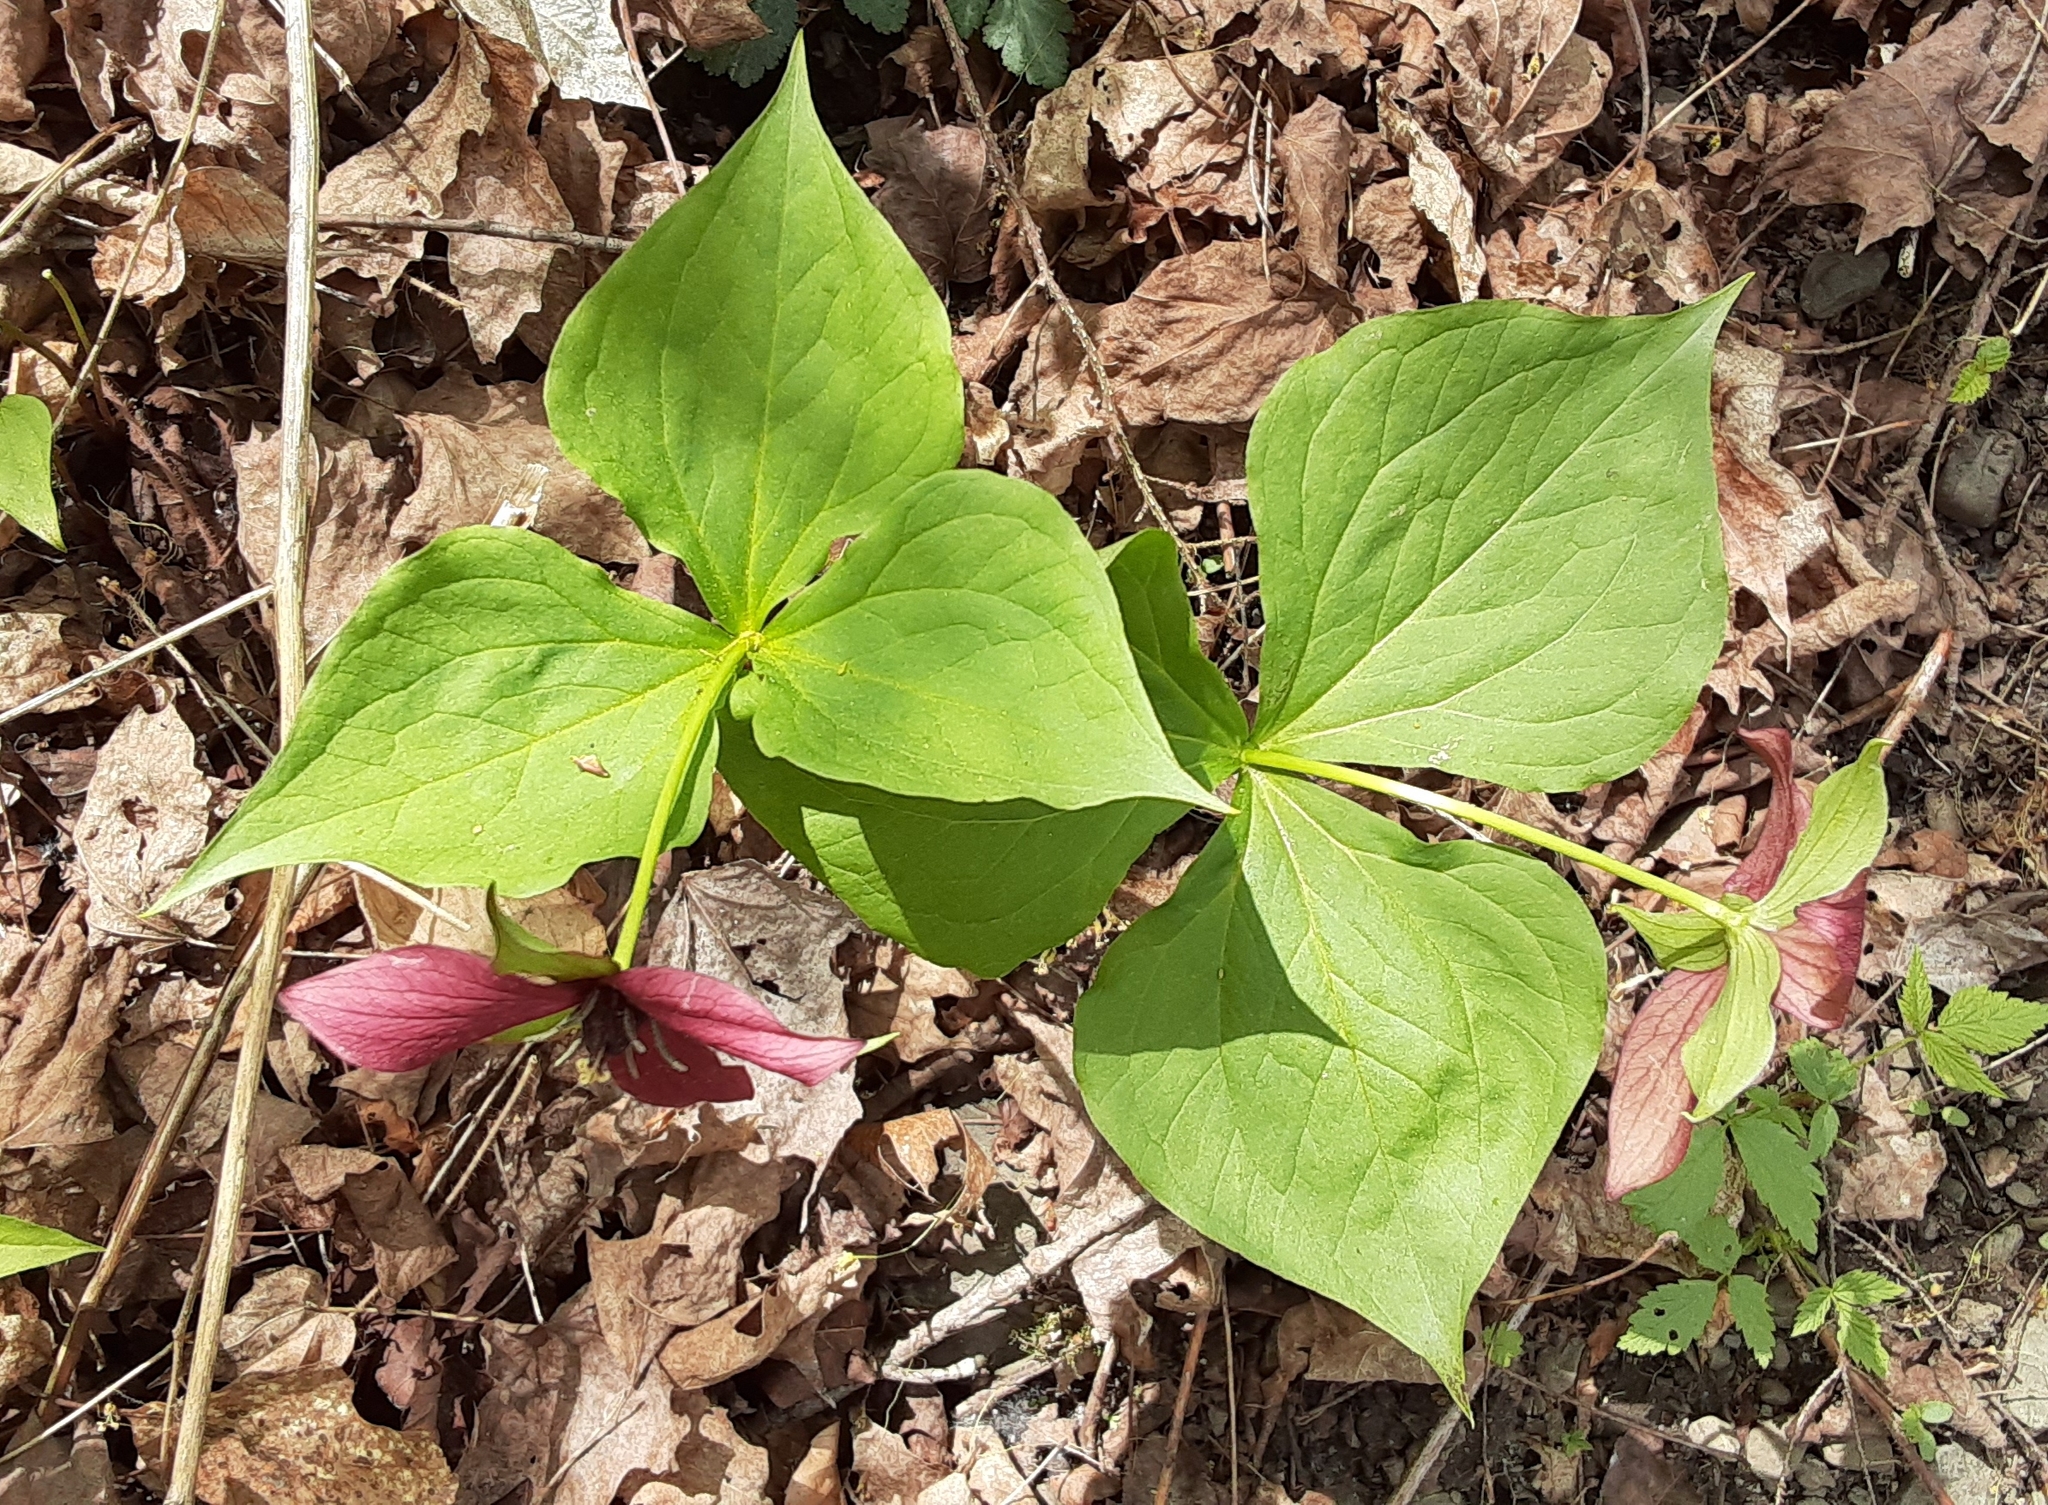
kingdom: Plantae
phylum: Tracheophyta
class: Liliopsida
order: Liliales
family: Melanthiaceae
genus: Trillium
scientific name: Trillium erectum
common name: Purple trillium
